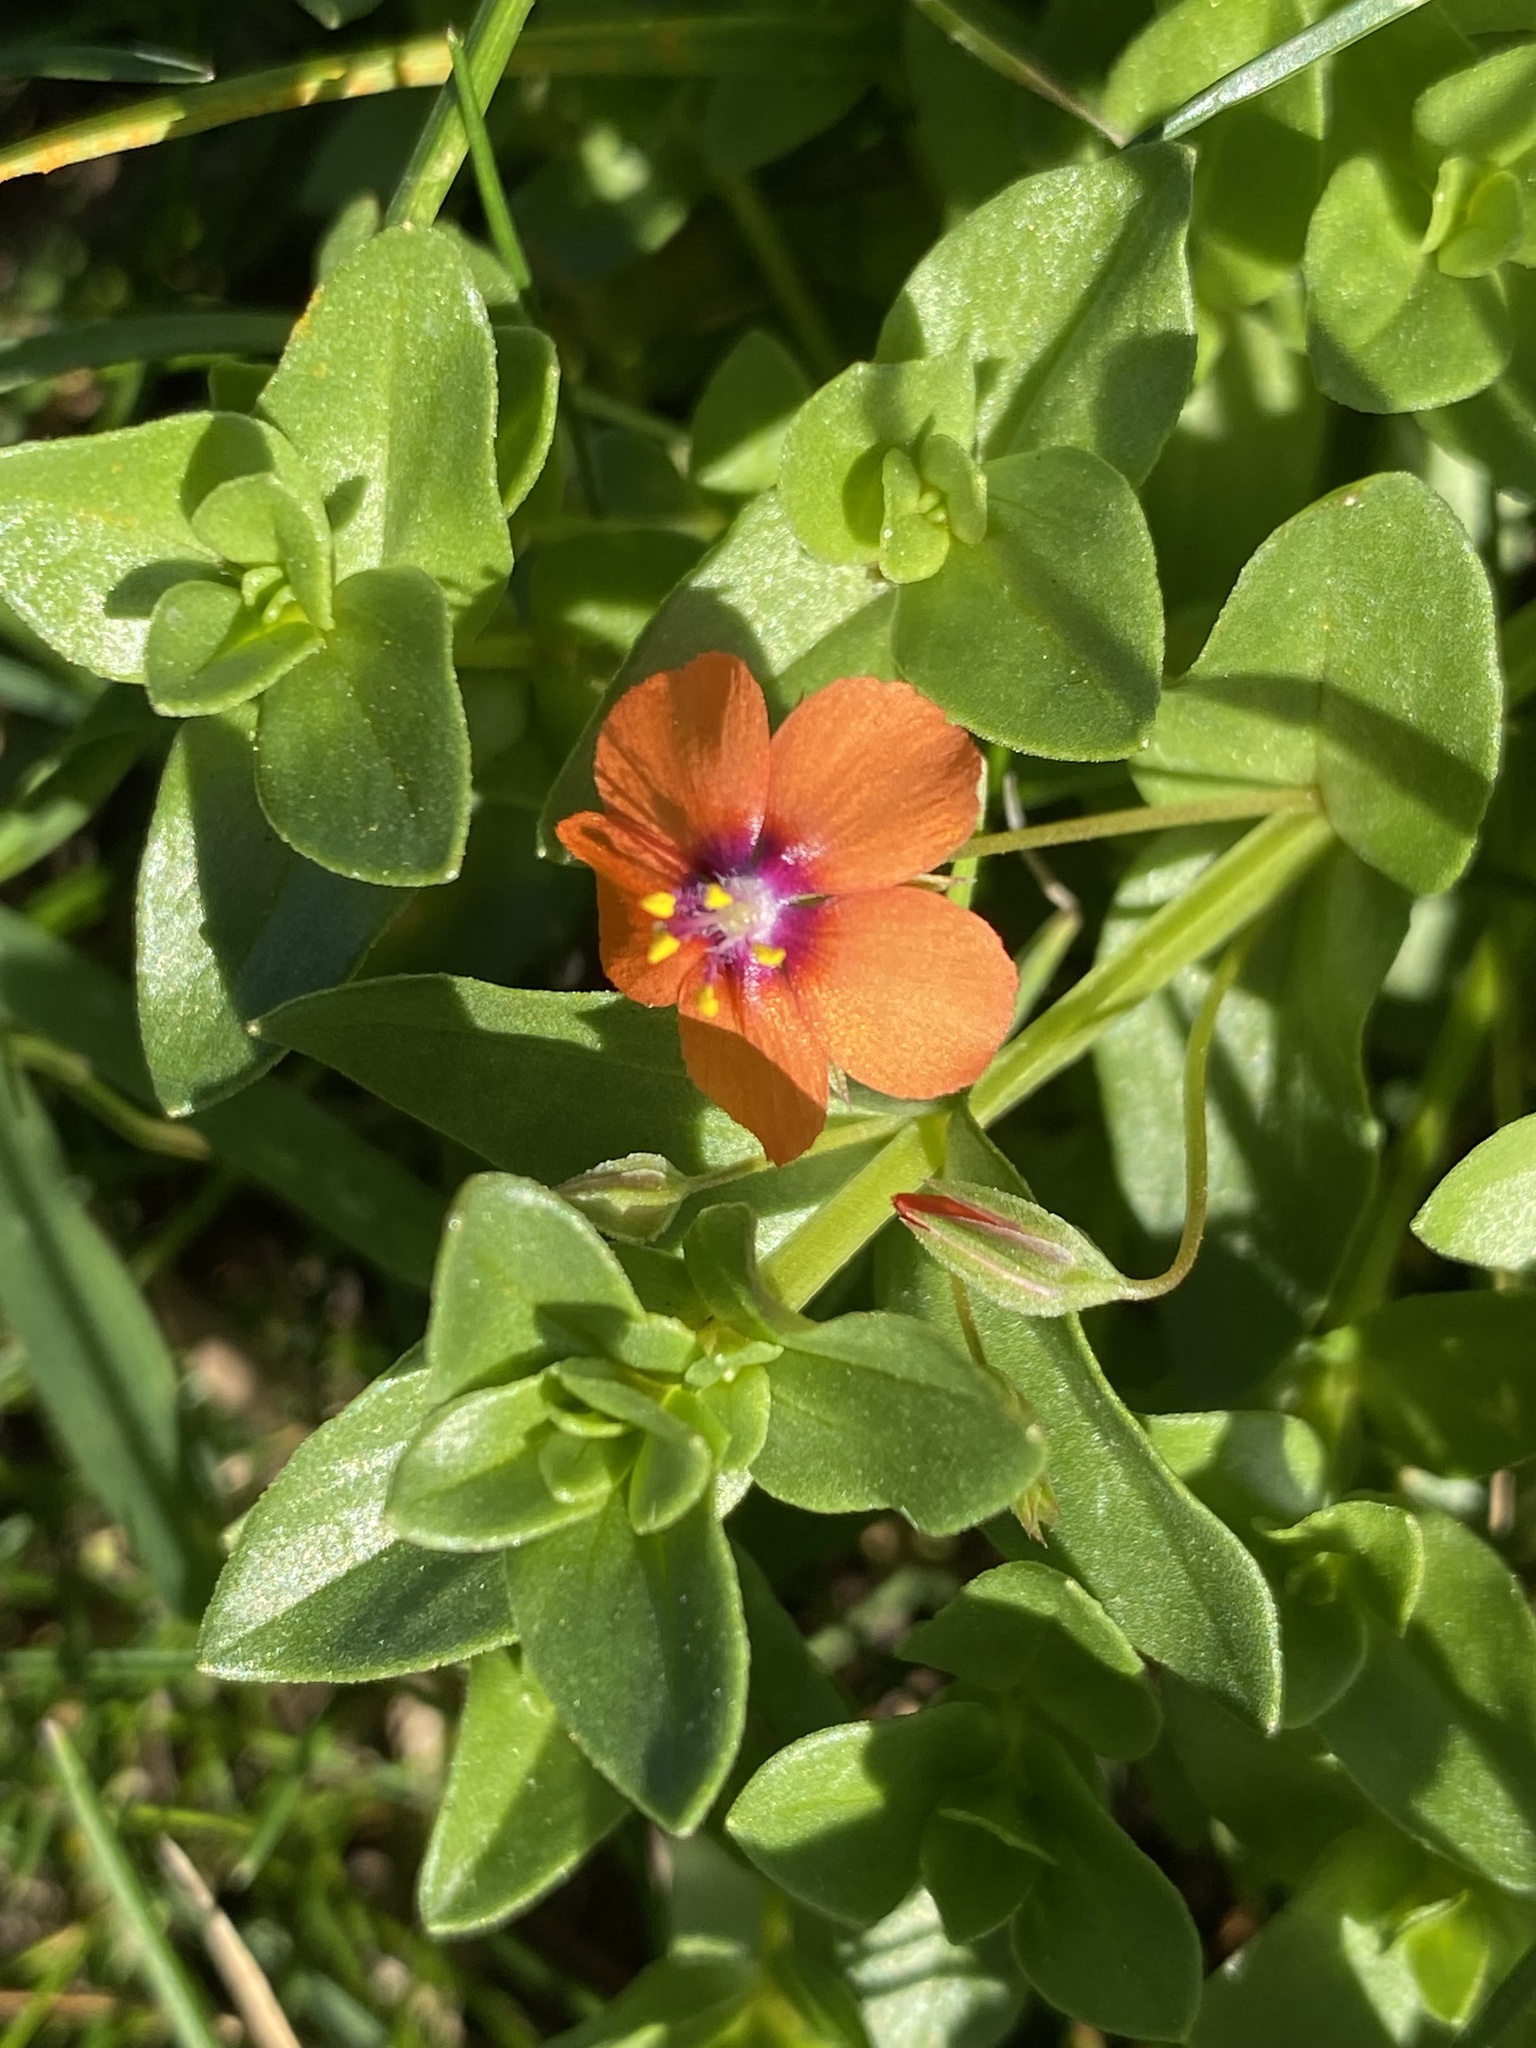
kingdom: Plantae
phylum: Tracheophyta
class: Magnoliopsida
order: Ericales
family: Primulaceae
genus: Lysimachia
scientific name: Lysimachia arvensis
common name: Scarlet pimpernel
